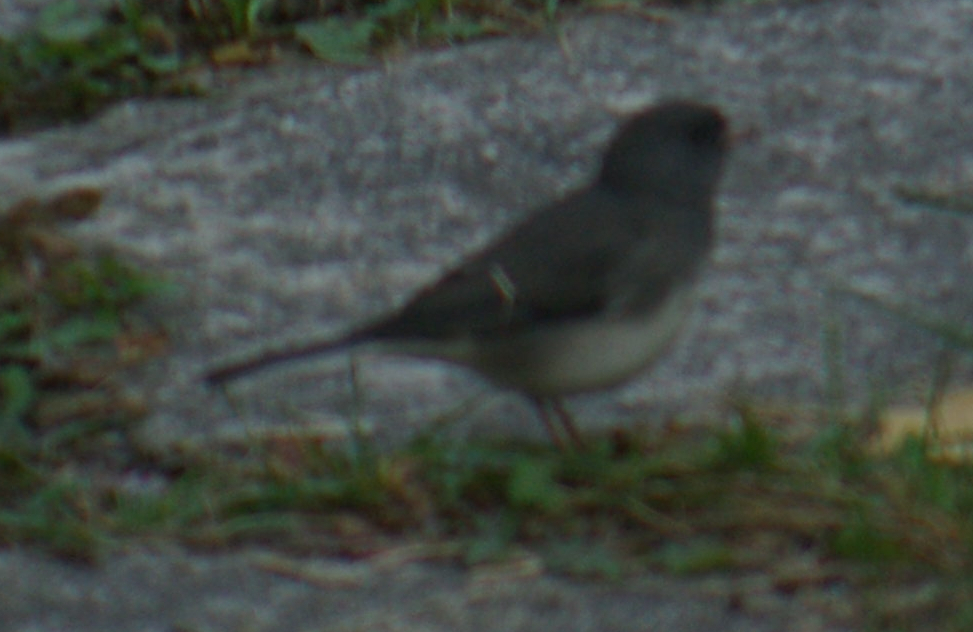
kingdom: Animalia
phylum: Chordata
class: Aves
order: Passeriformes
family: Passerellidae
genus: Junco
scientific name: Junco hyemalis
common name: Dark-eyed junco
